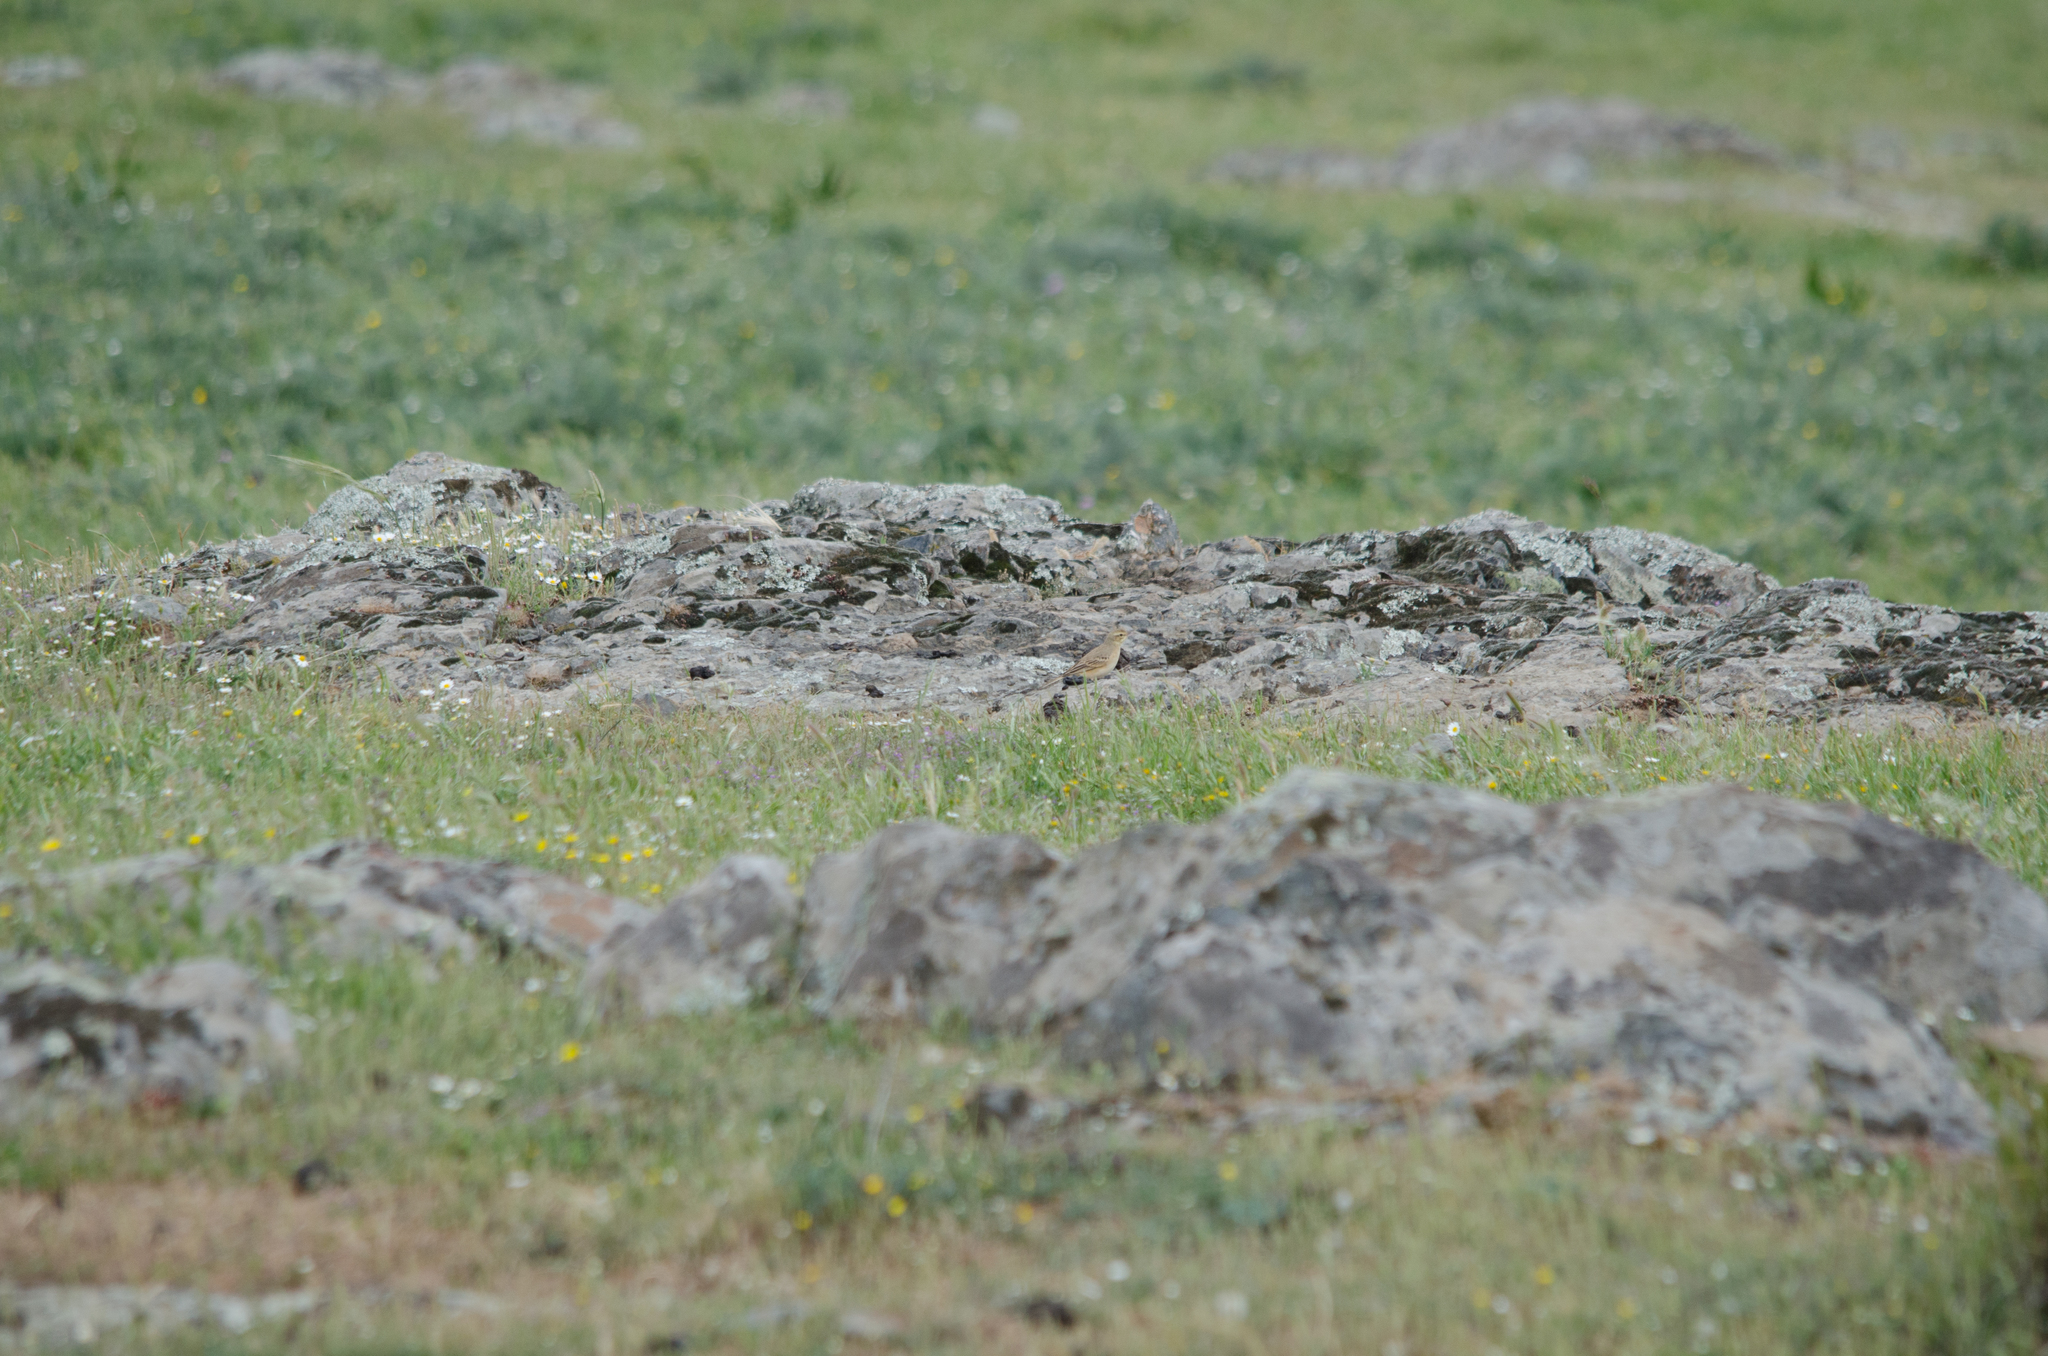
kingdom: Animalia
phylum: Chordata
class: Aves
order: Passeriformes
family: Motacillidae
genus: Anthus
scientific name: Anthus campestris
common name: Tawny pipit
